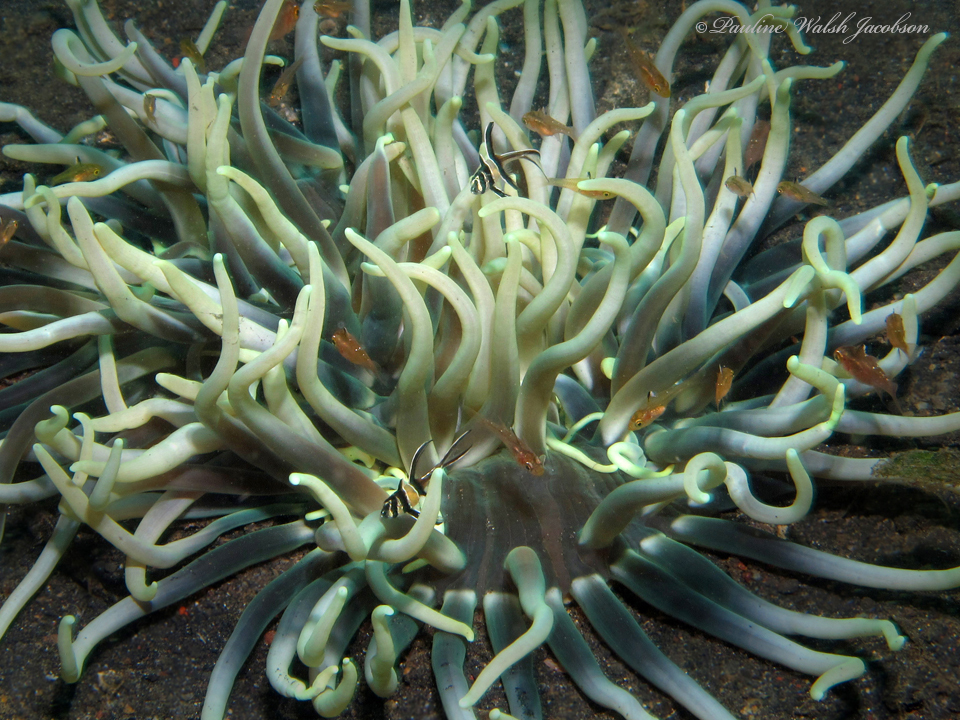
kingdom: Animalia
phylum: Chordata
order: Perciformes
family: Apogonidae
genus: Pterapogon
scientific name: Pterapogon kauderni
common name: Banggai cardinalfish
